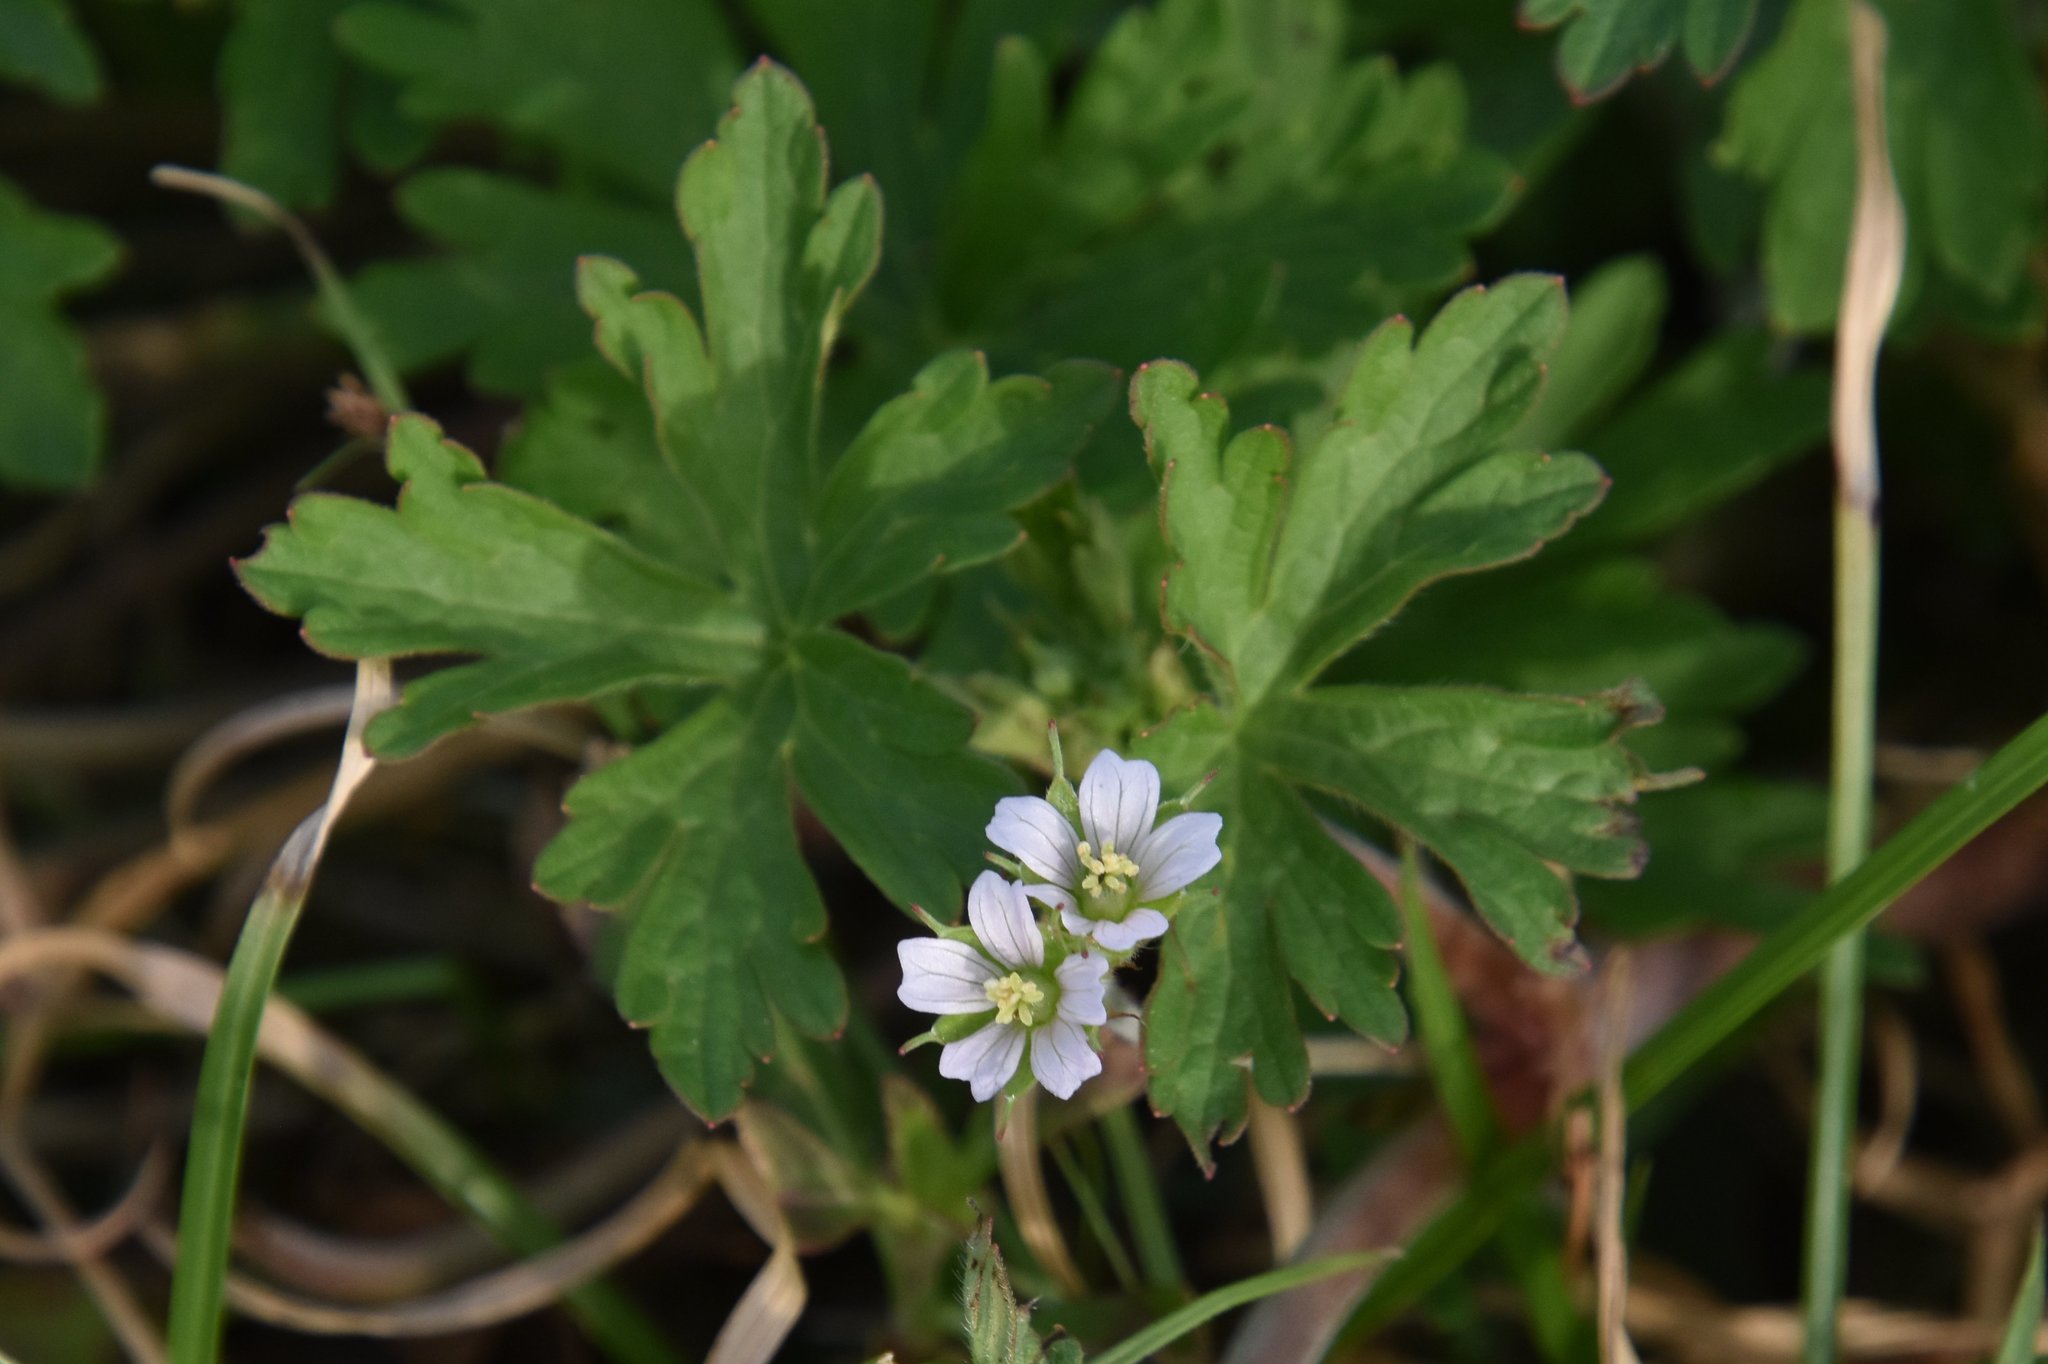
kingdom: Plantae
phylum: Tracheophyta
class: Magnoliopsida
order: Geraniales
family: Geraniaceae
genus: Geranium
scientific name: Geranium carolinianum
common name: Carolina crane's-bill
